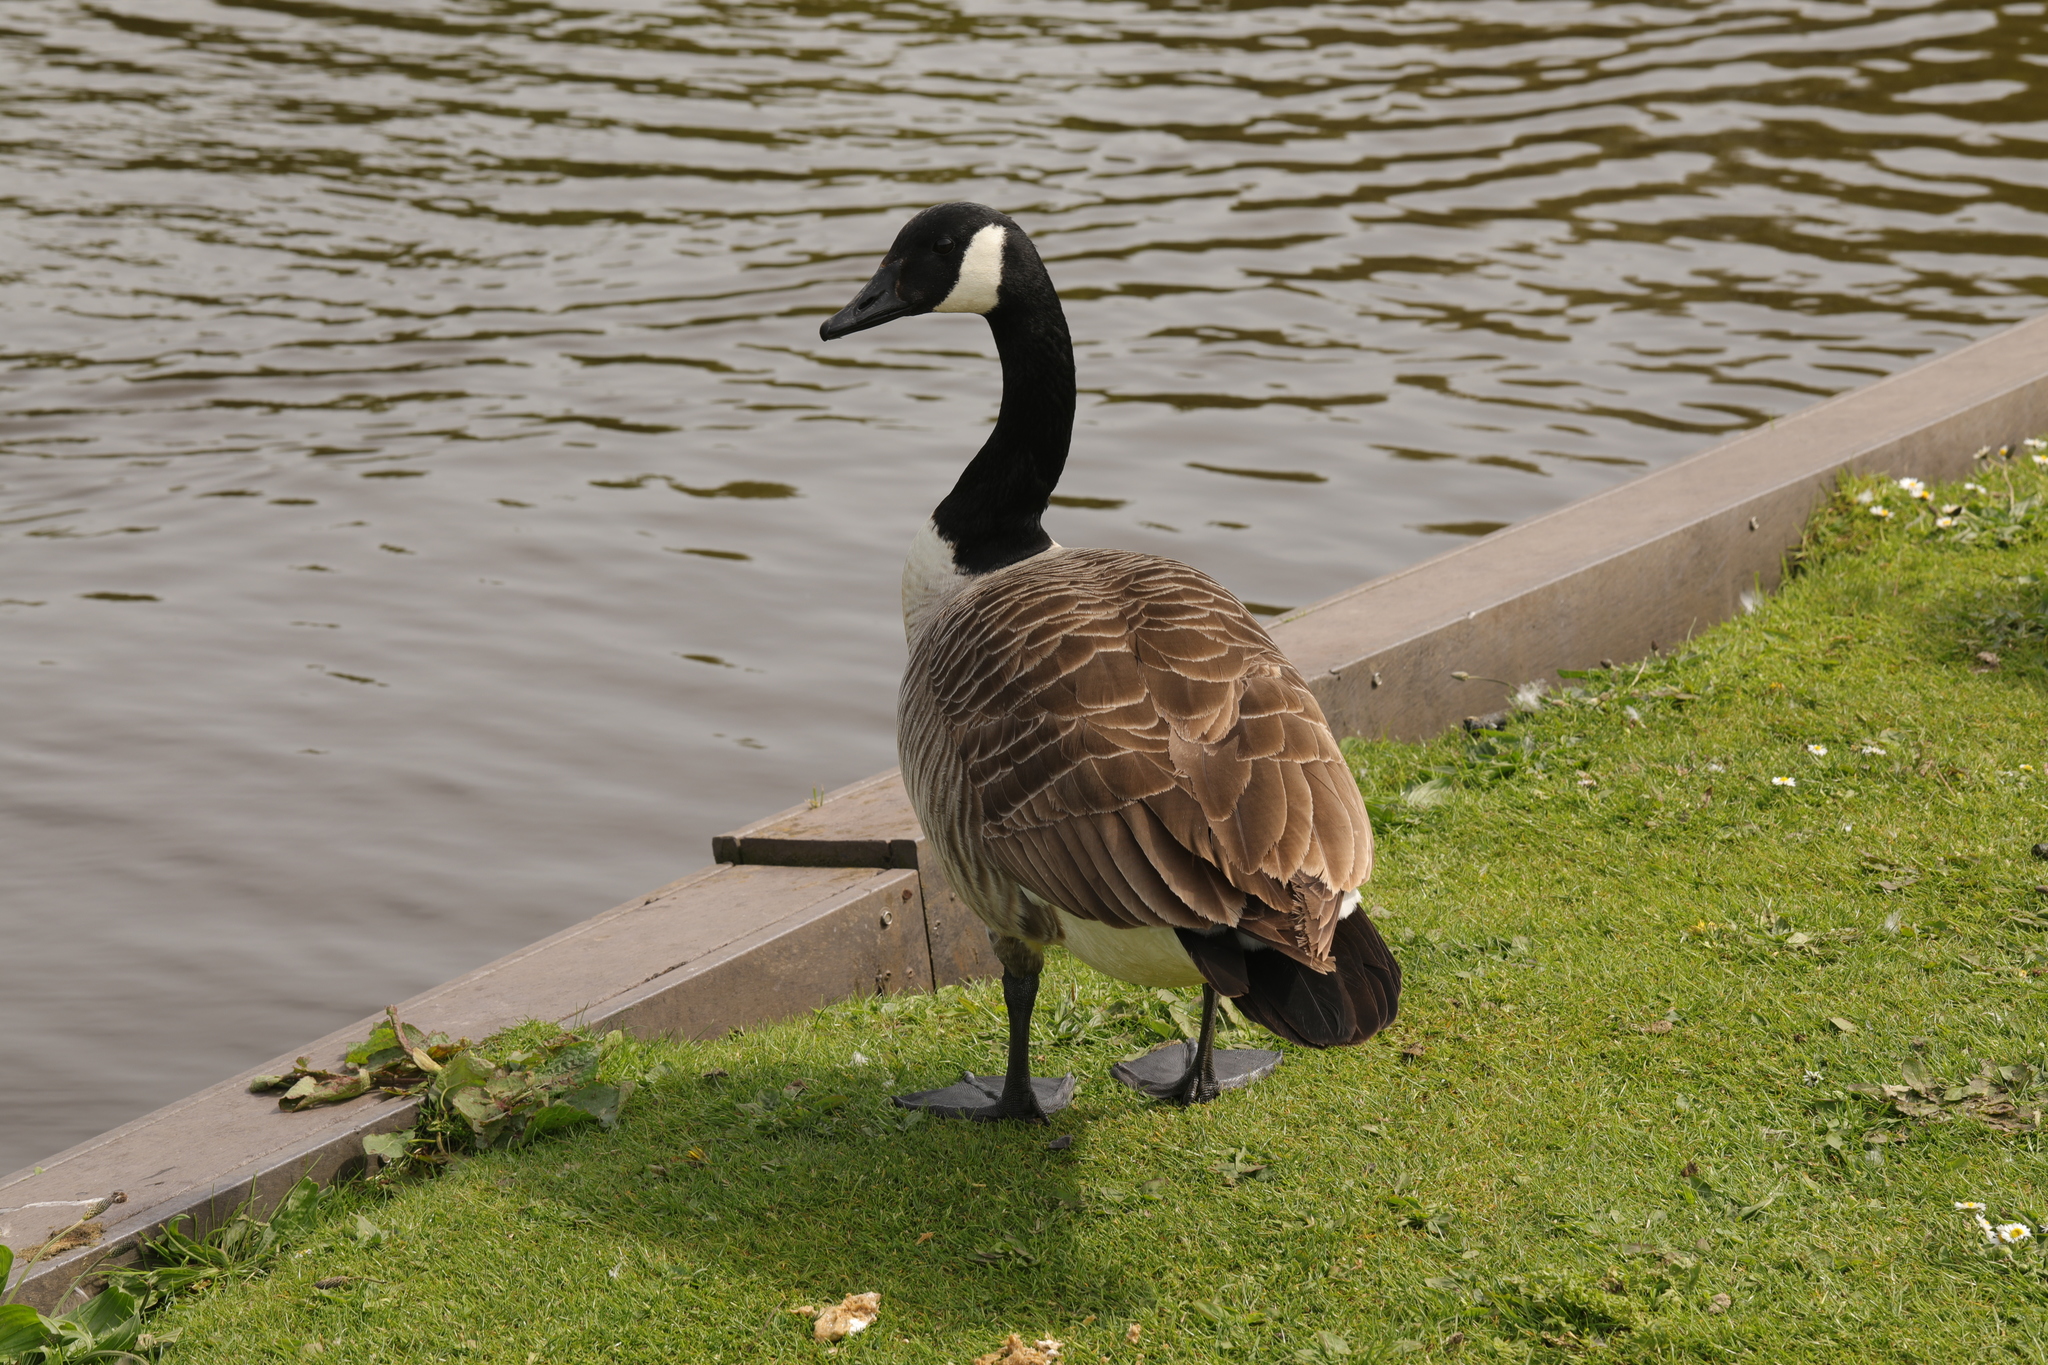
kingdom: Animalia
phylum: Chordata
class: Aves
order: Anseriformes
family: Anatidae
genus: Branta
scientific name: Branta canadensis
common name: Canada goose
